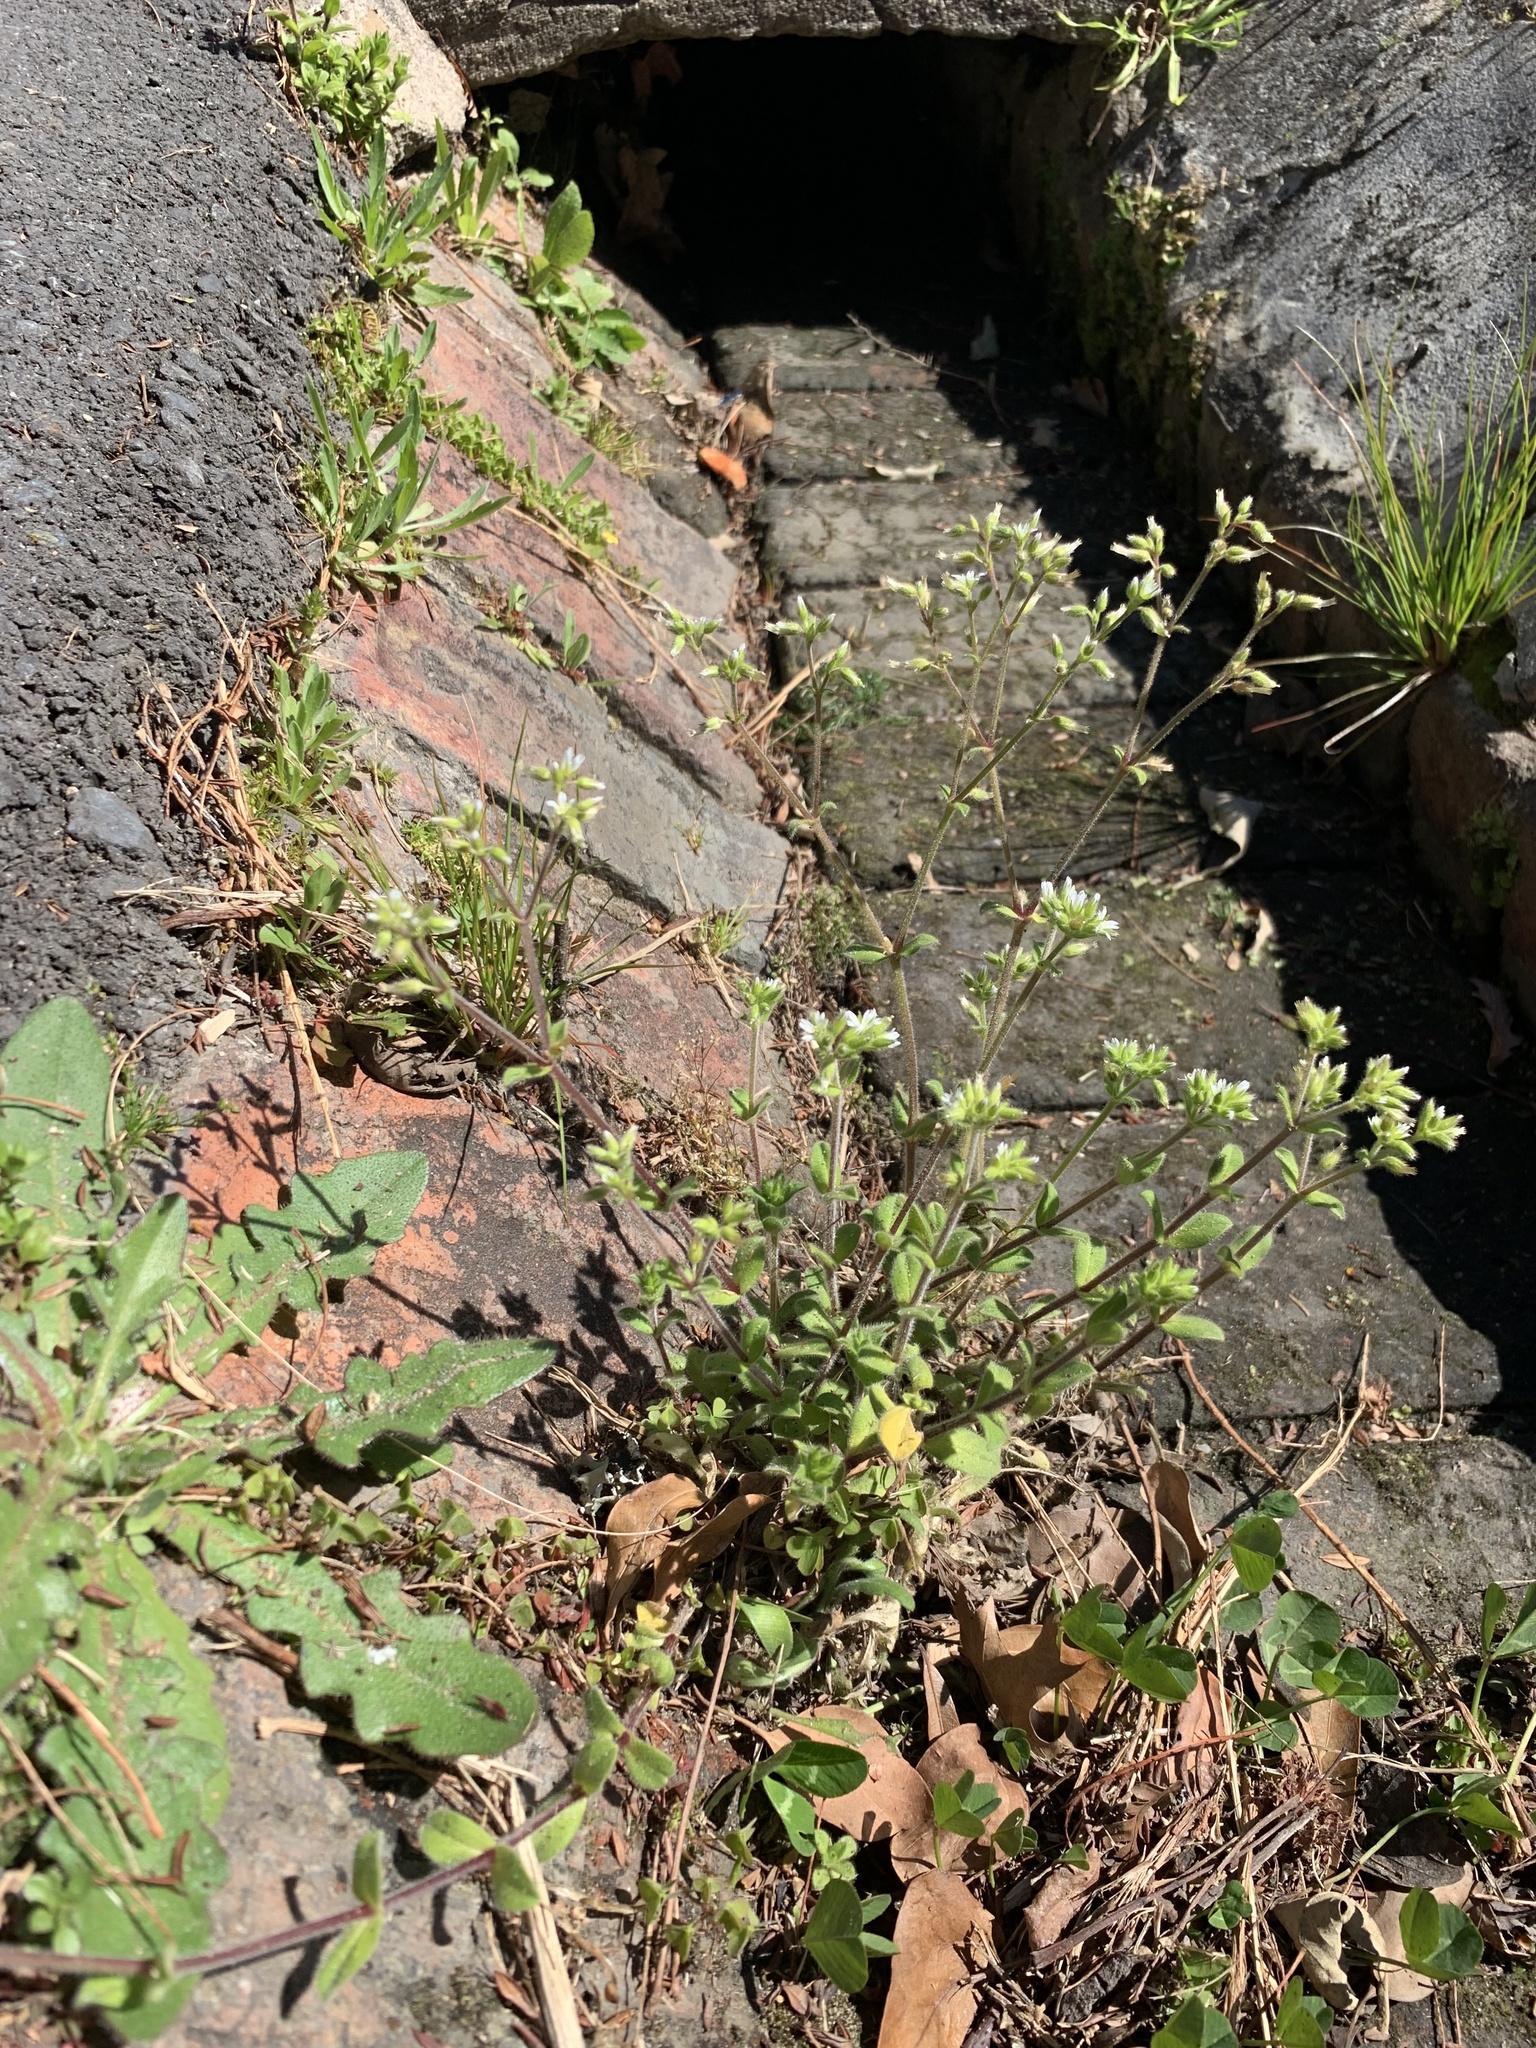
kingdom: Plantae
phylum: Tracheophyta
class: Magnoliopsida
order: Caryophyllales
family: Caryophyllaceae
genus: Cerastium
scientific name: Cerastium glomeratum
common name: Sticky chickweed
